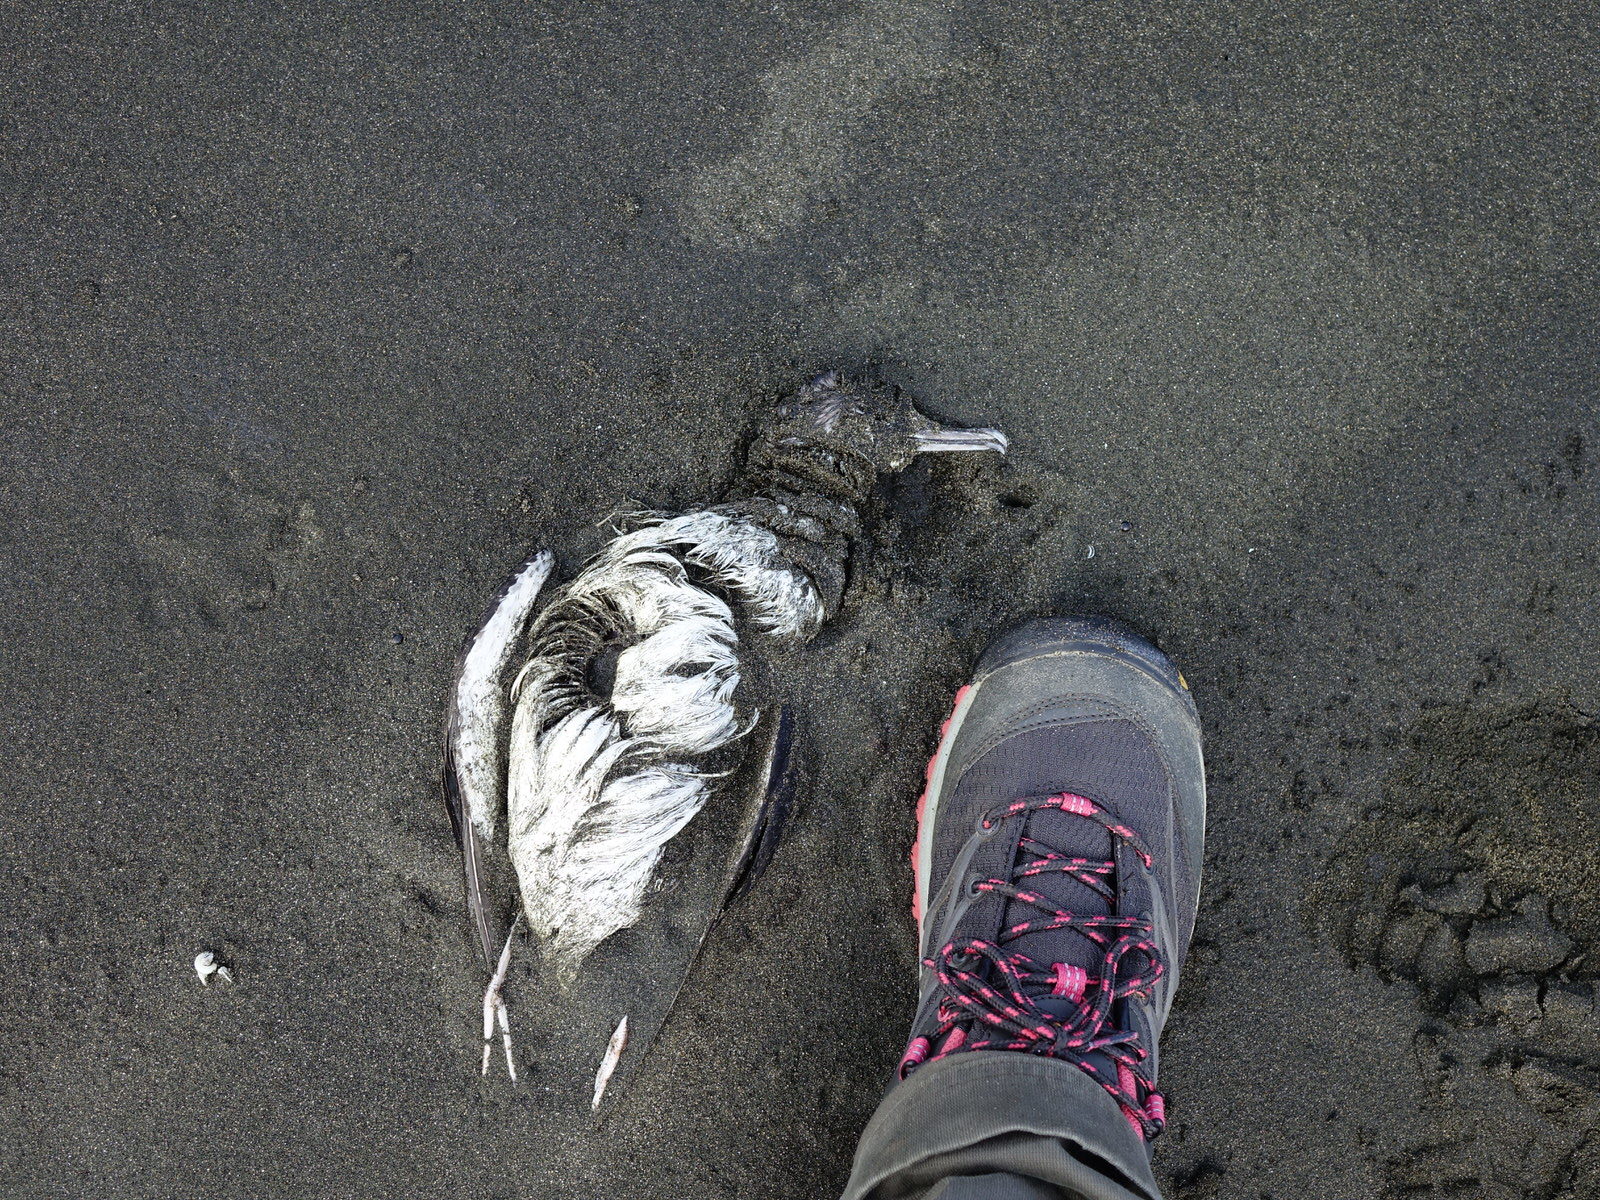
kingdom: Animalia
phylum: Chordata
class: Aves
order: Procellariiformes
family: Procellariidae
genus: Puffinus
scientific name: Puffinus bulleri
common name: Buller's shearwater
